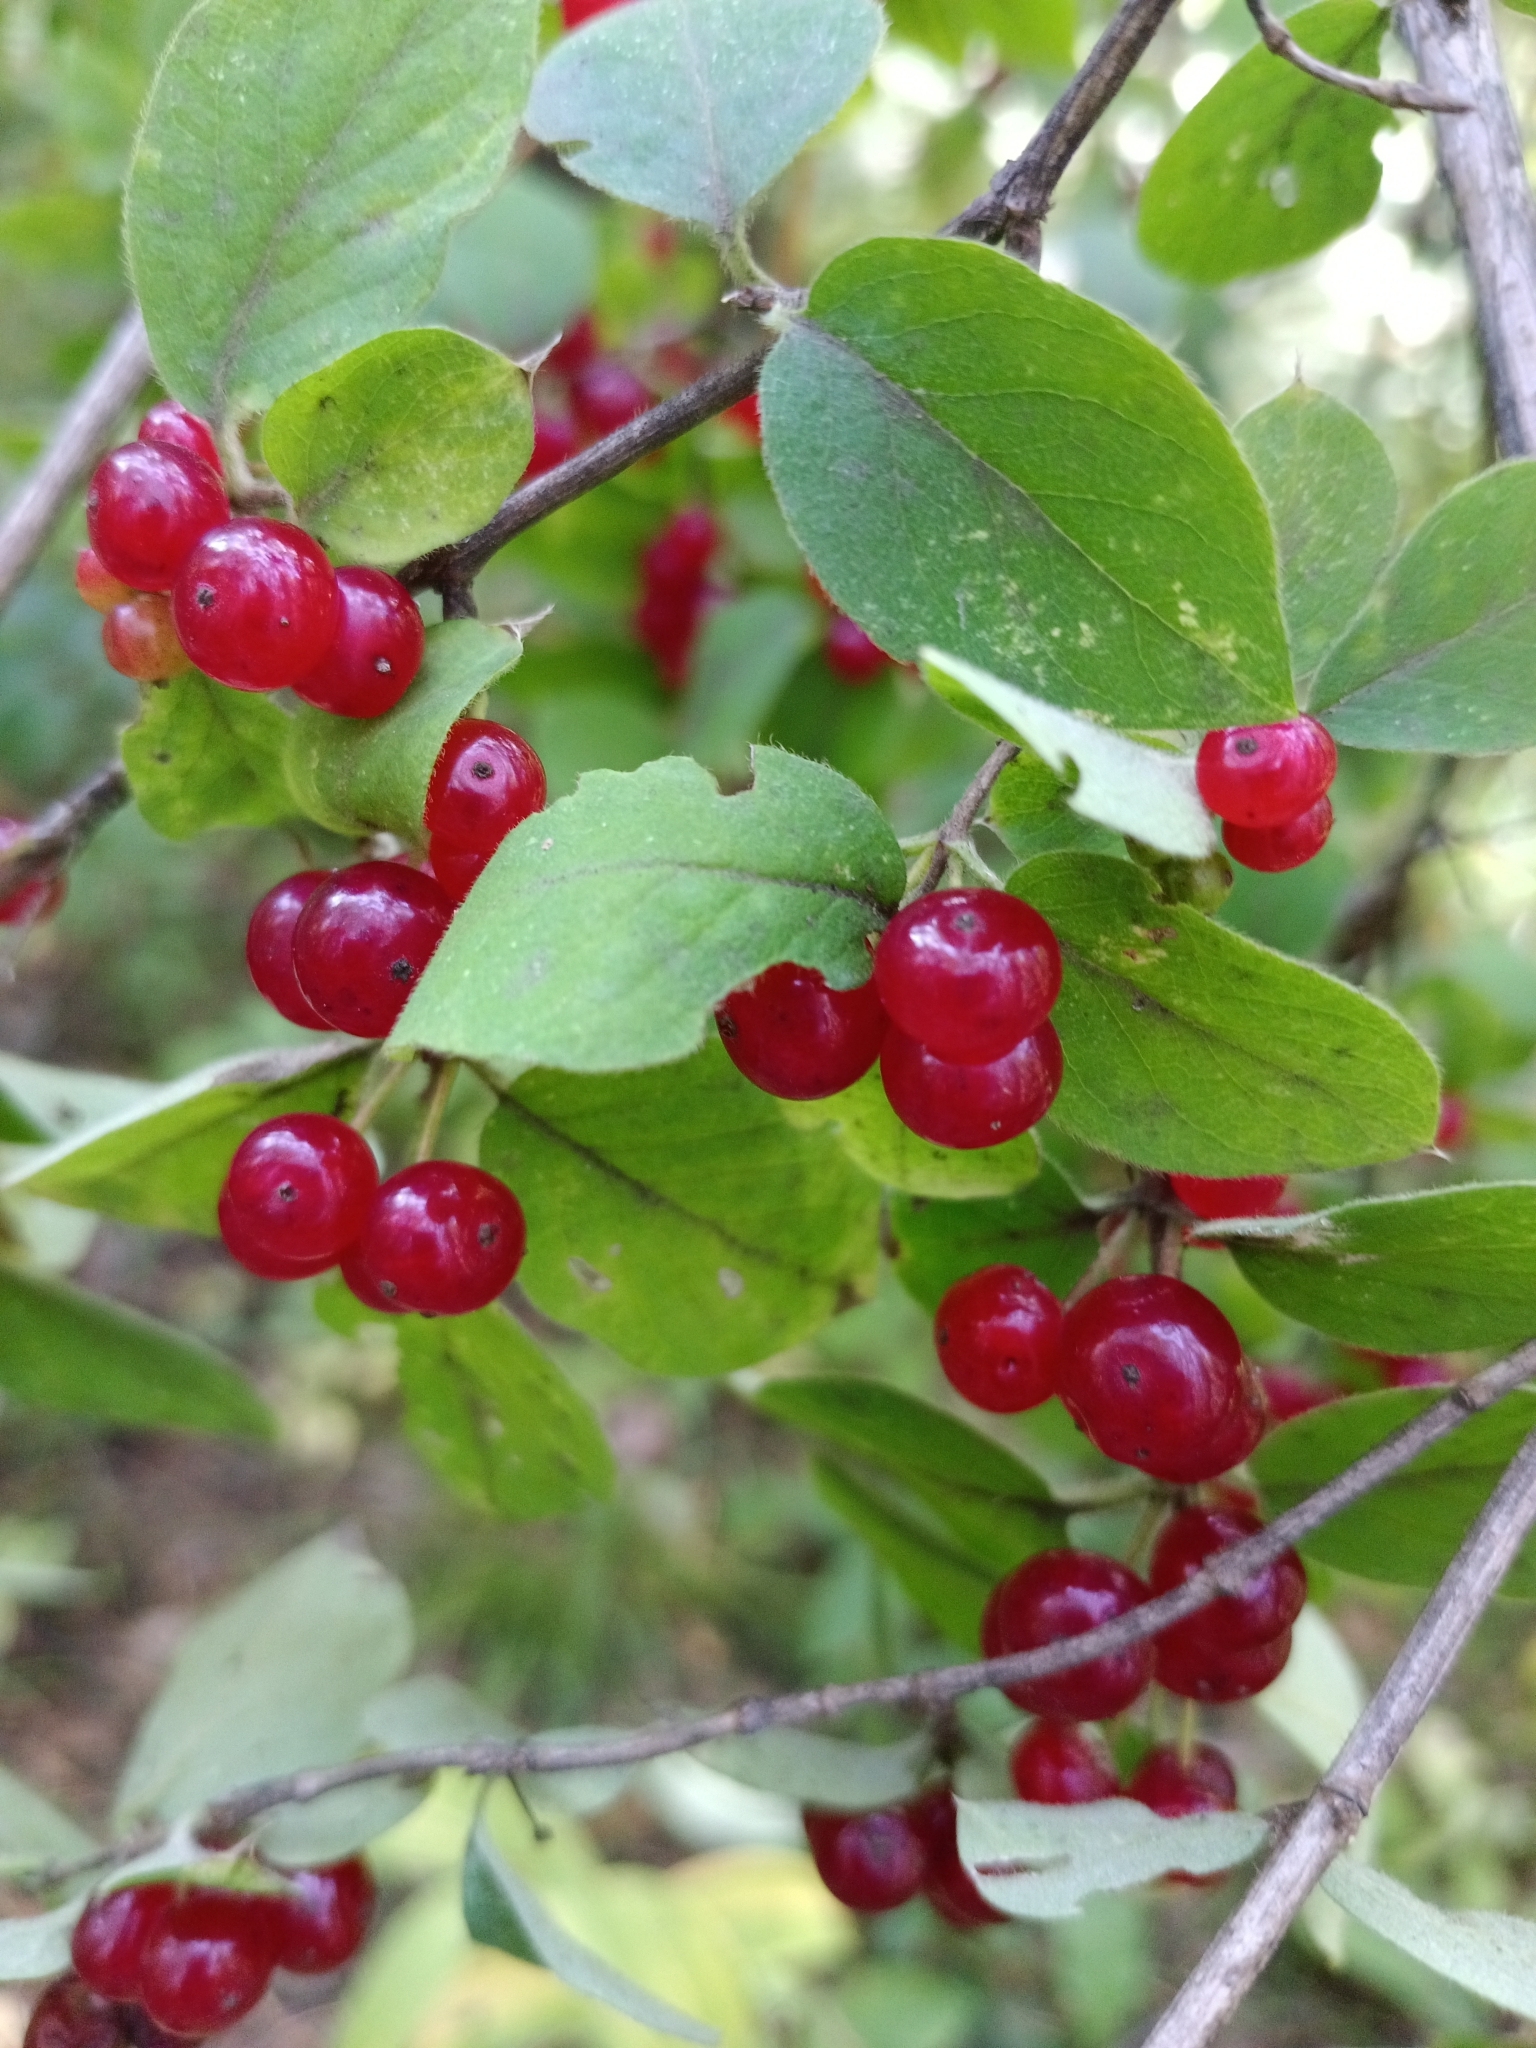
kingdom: Plantae
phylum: Tracheophyta
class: Magnoliopsida
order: Dipsacales
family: Caprifoliaceae
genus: Lonicera
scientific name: Lonicera xylosteum
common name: Fly honeysuckle
